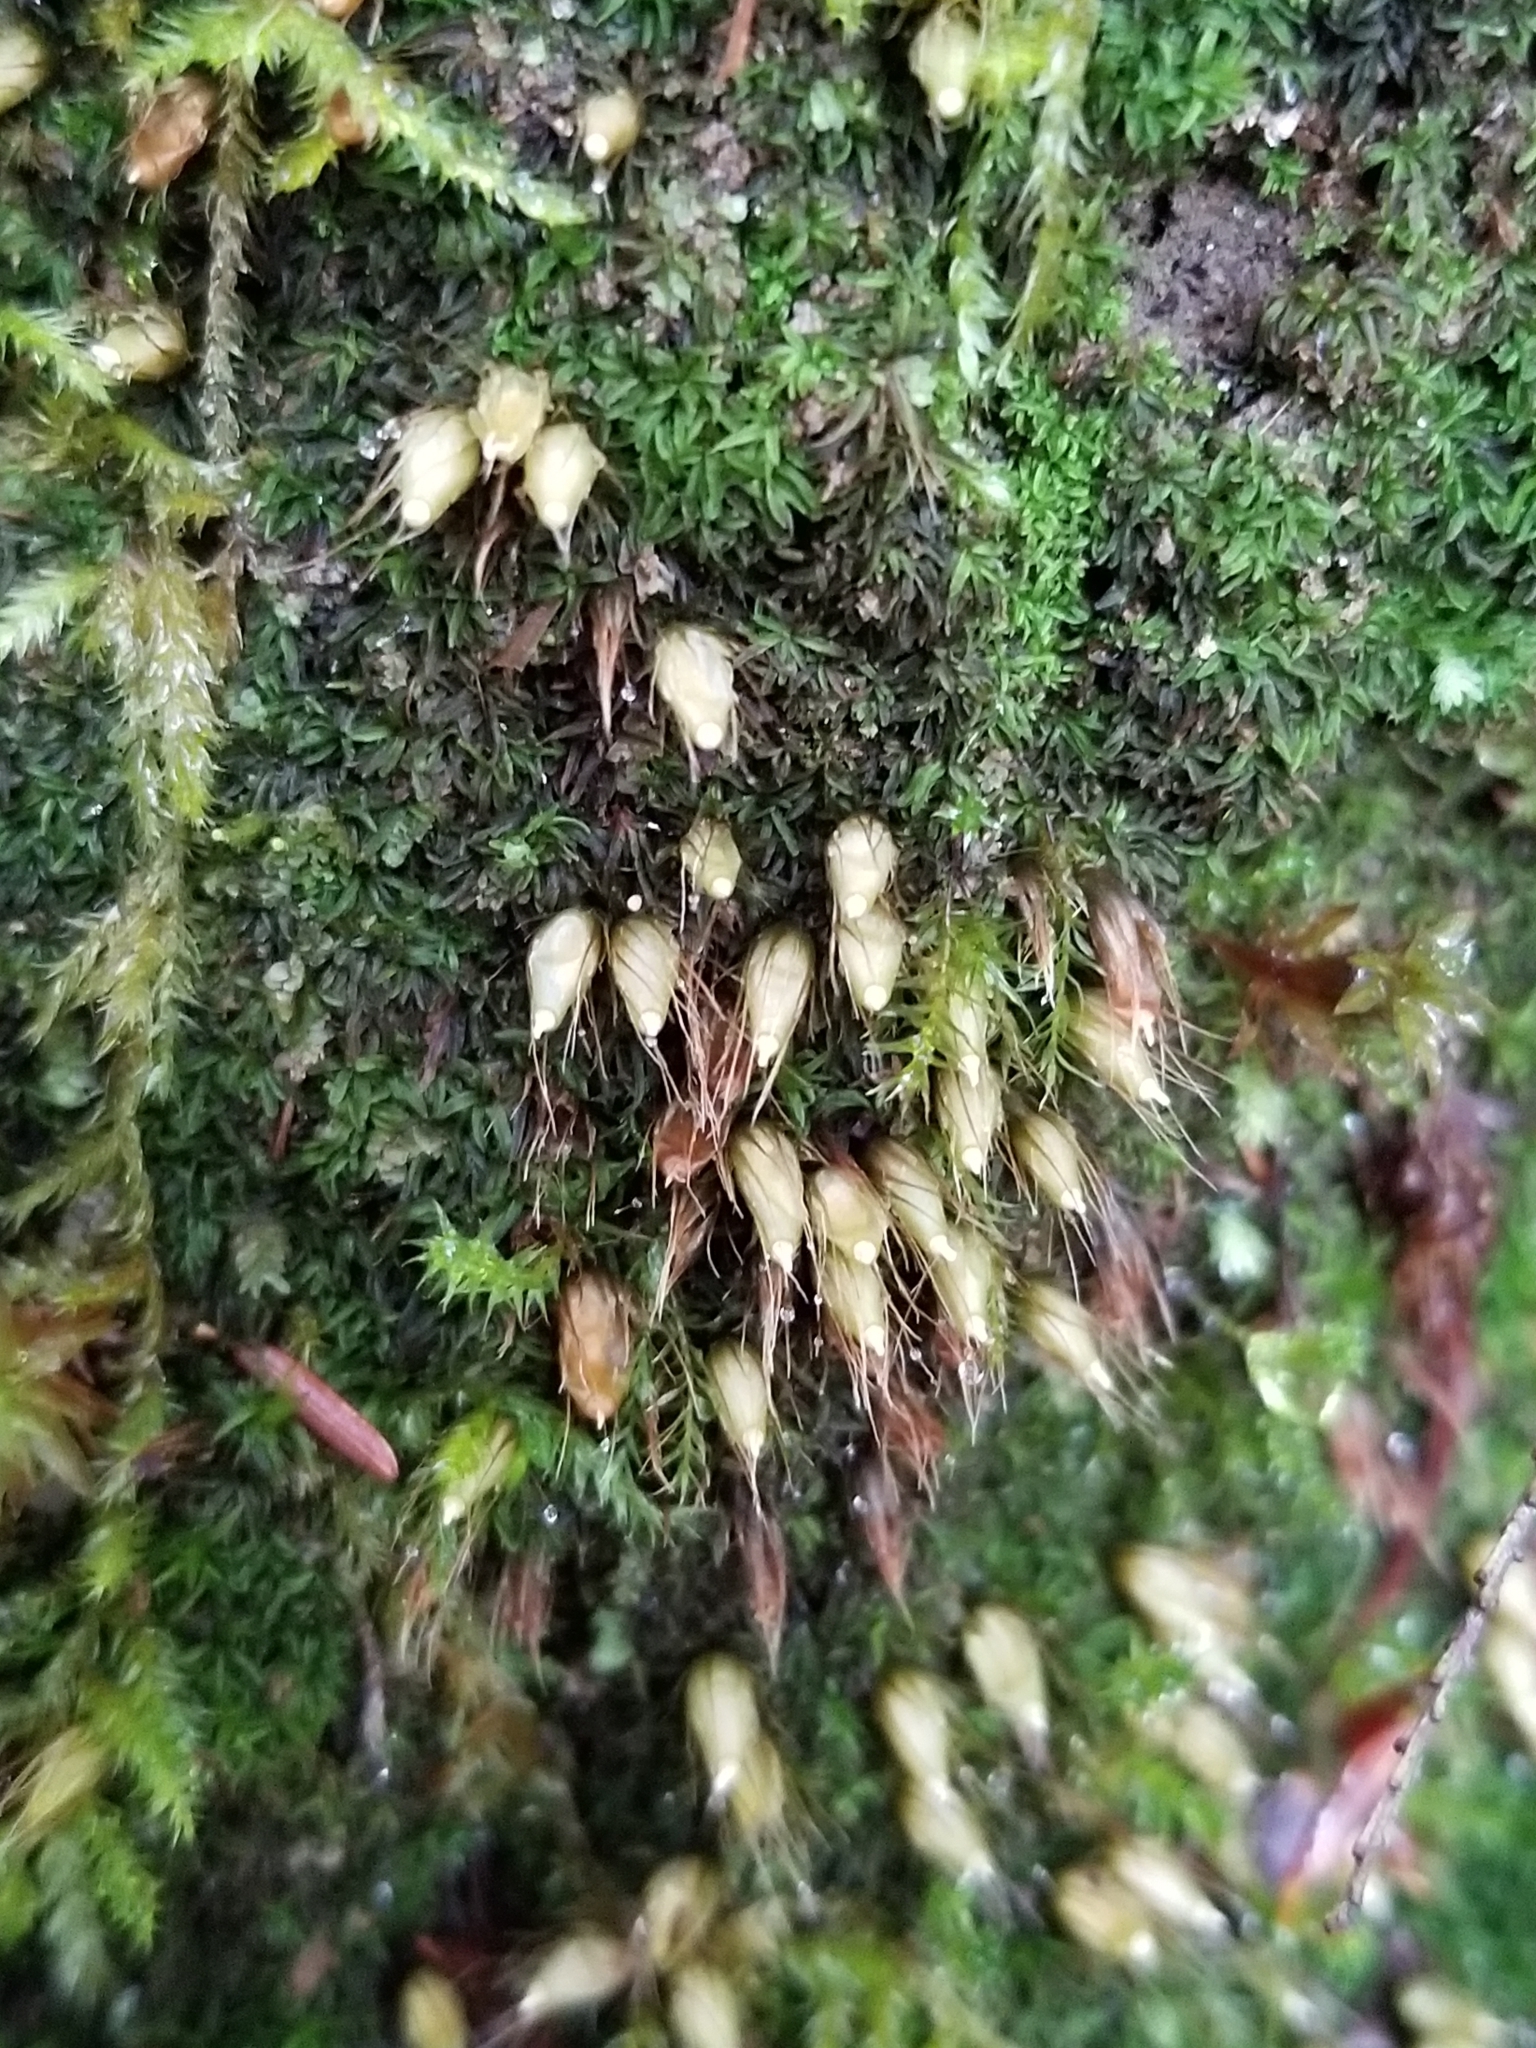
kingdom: Plantae
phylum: Bryophyta
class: Bryopsida
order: Diphysciales
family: Diphysciaceae
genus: Diphyscium
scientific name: Diphyscium foliosum
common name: Nut moss
